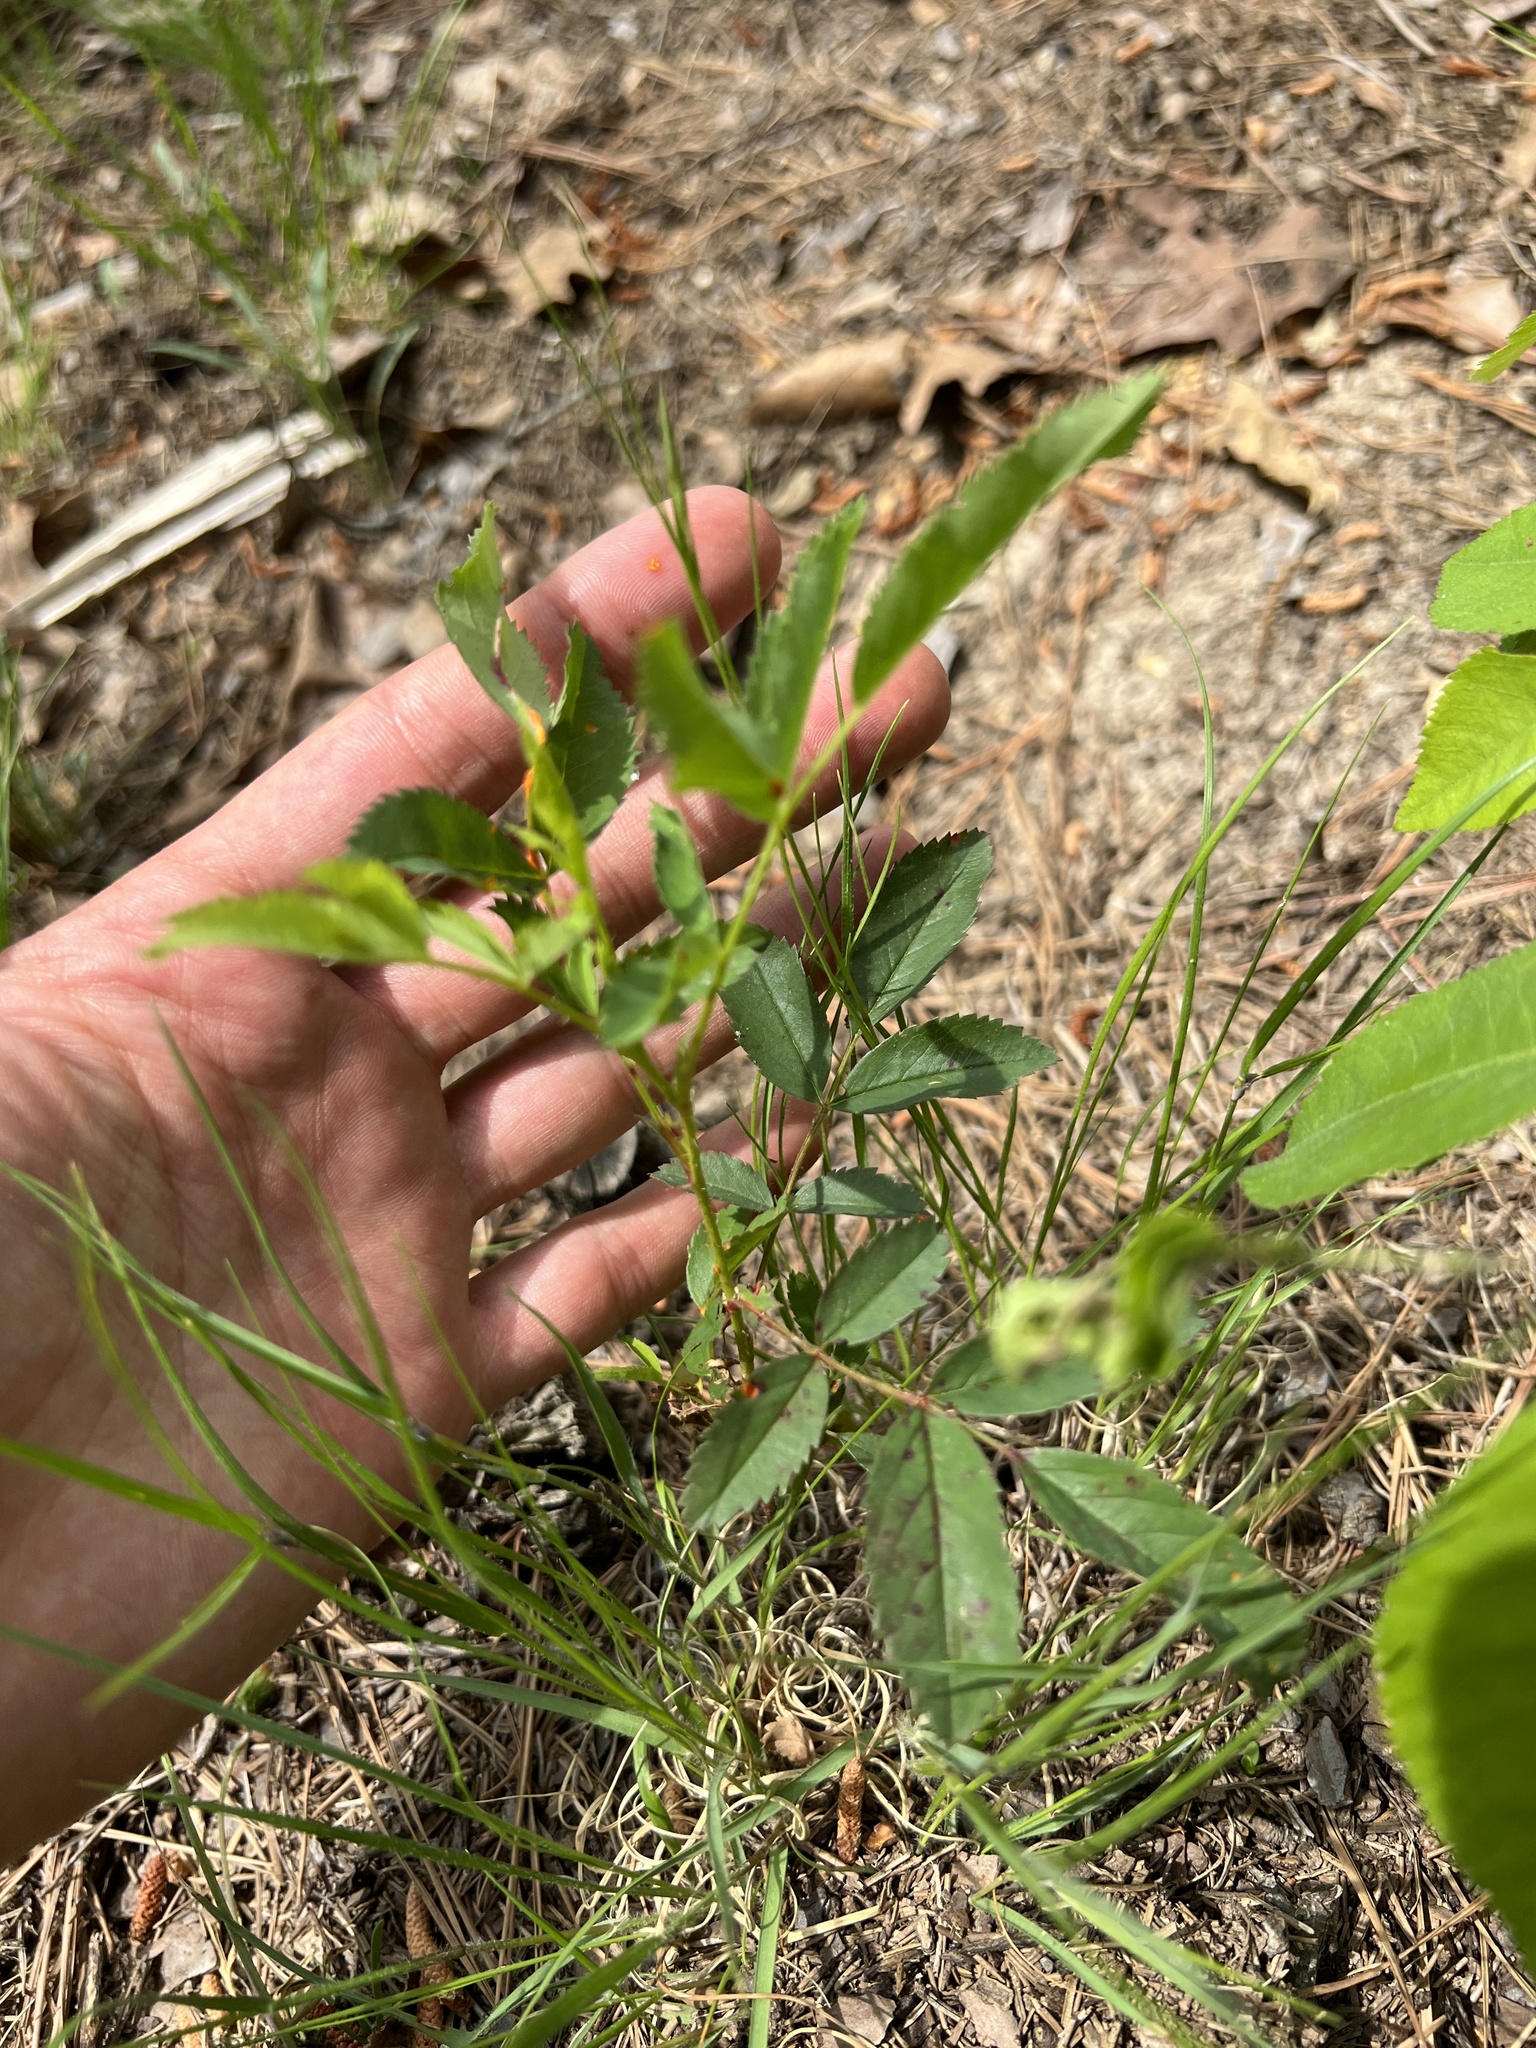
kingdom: Plantae
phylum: Tracheophyta
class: Magnoliopsida
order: Rosales
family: Rosaceae
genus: Rosa
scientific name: Rosa carolina
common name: Pasture rose
